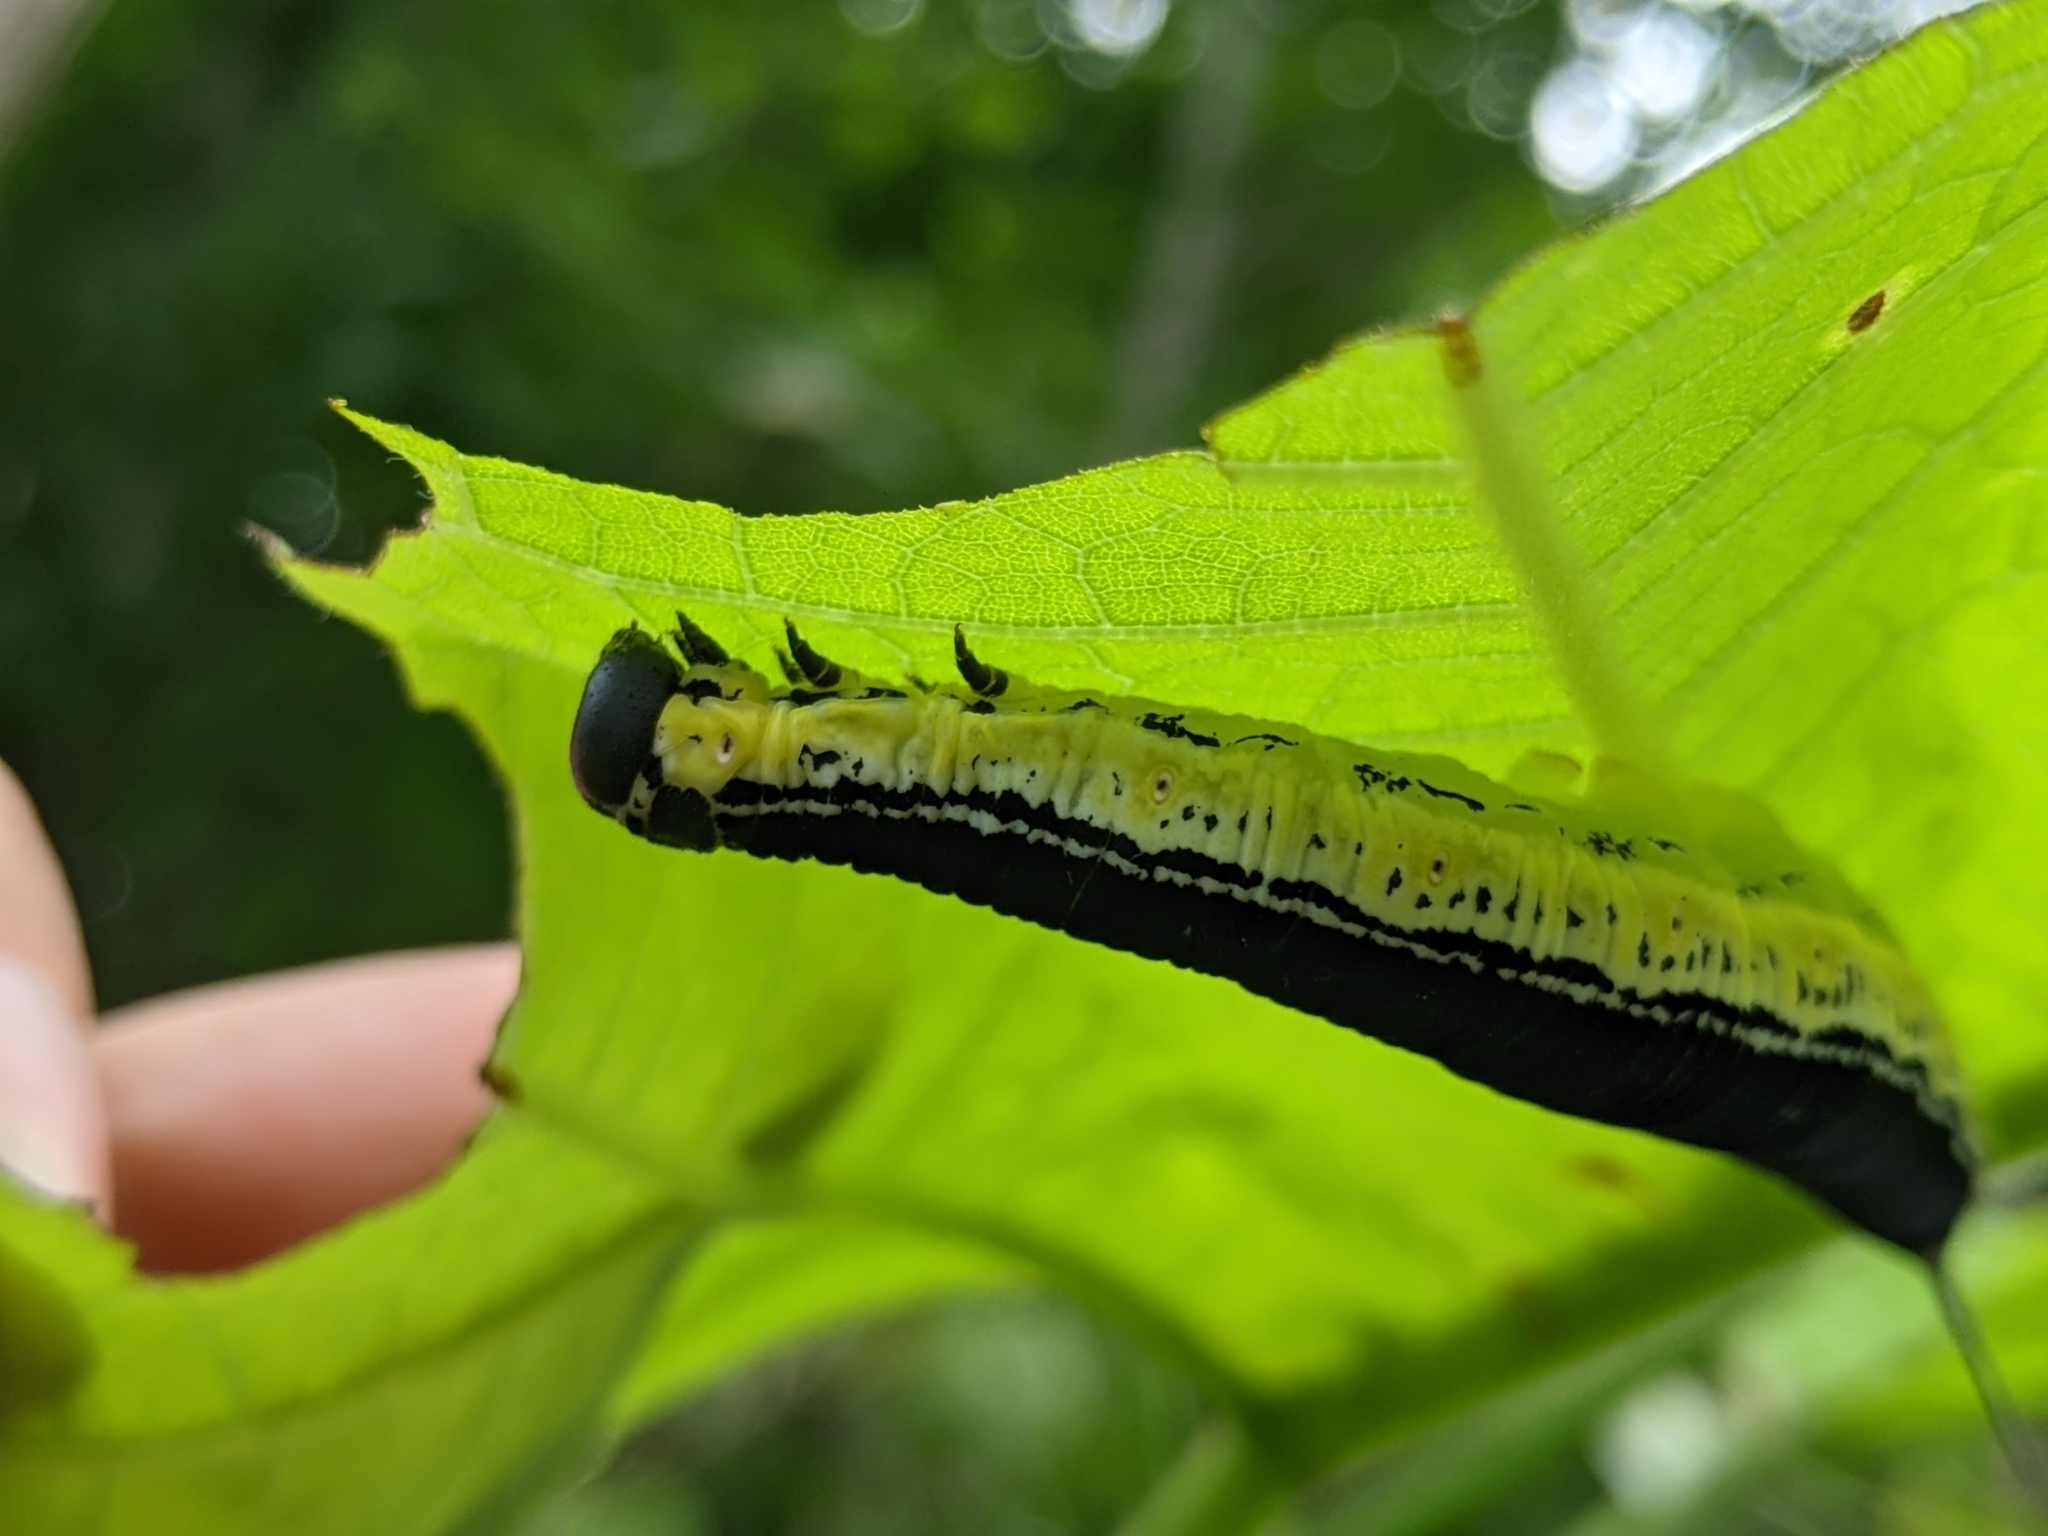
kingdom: Animalia
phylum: Arthropoda
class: Insecta
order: Lepidoptera
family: Sphingidae
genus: Ceratomia
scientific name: Ceratomia catalpae
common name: Catalpa hornworm
